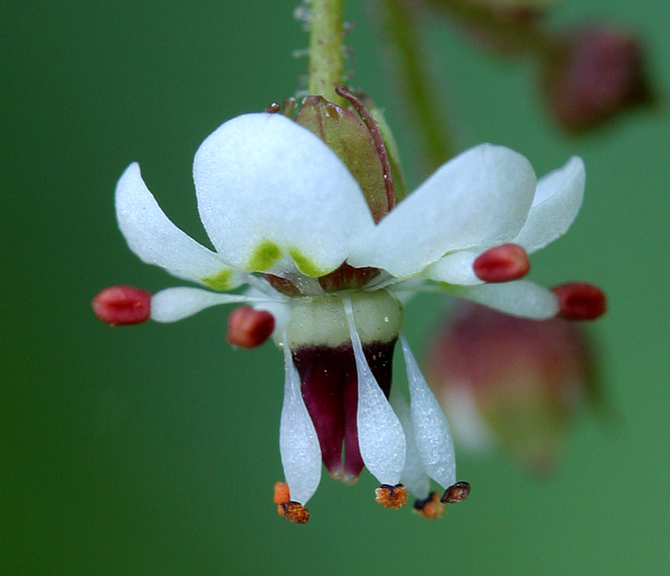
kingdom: Plantae
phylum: Tracheophyta
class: Magnoliopsida
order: Saxifragales
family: Saxifragaceae
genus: Micranthes
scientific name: Micranthes odontoloma
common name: Brook saxifrage
